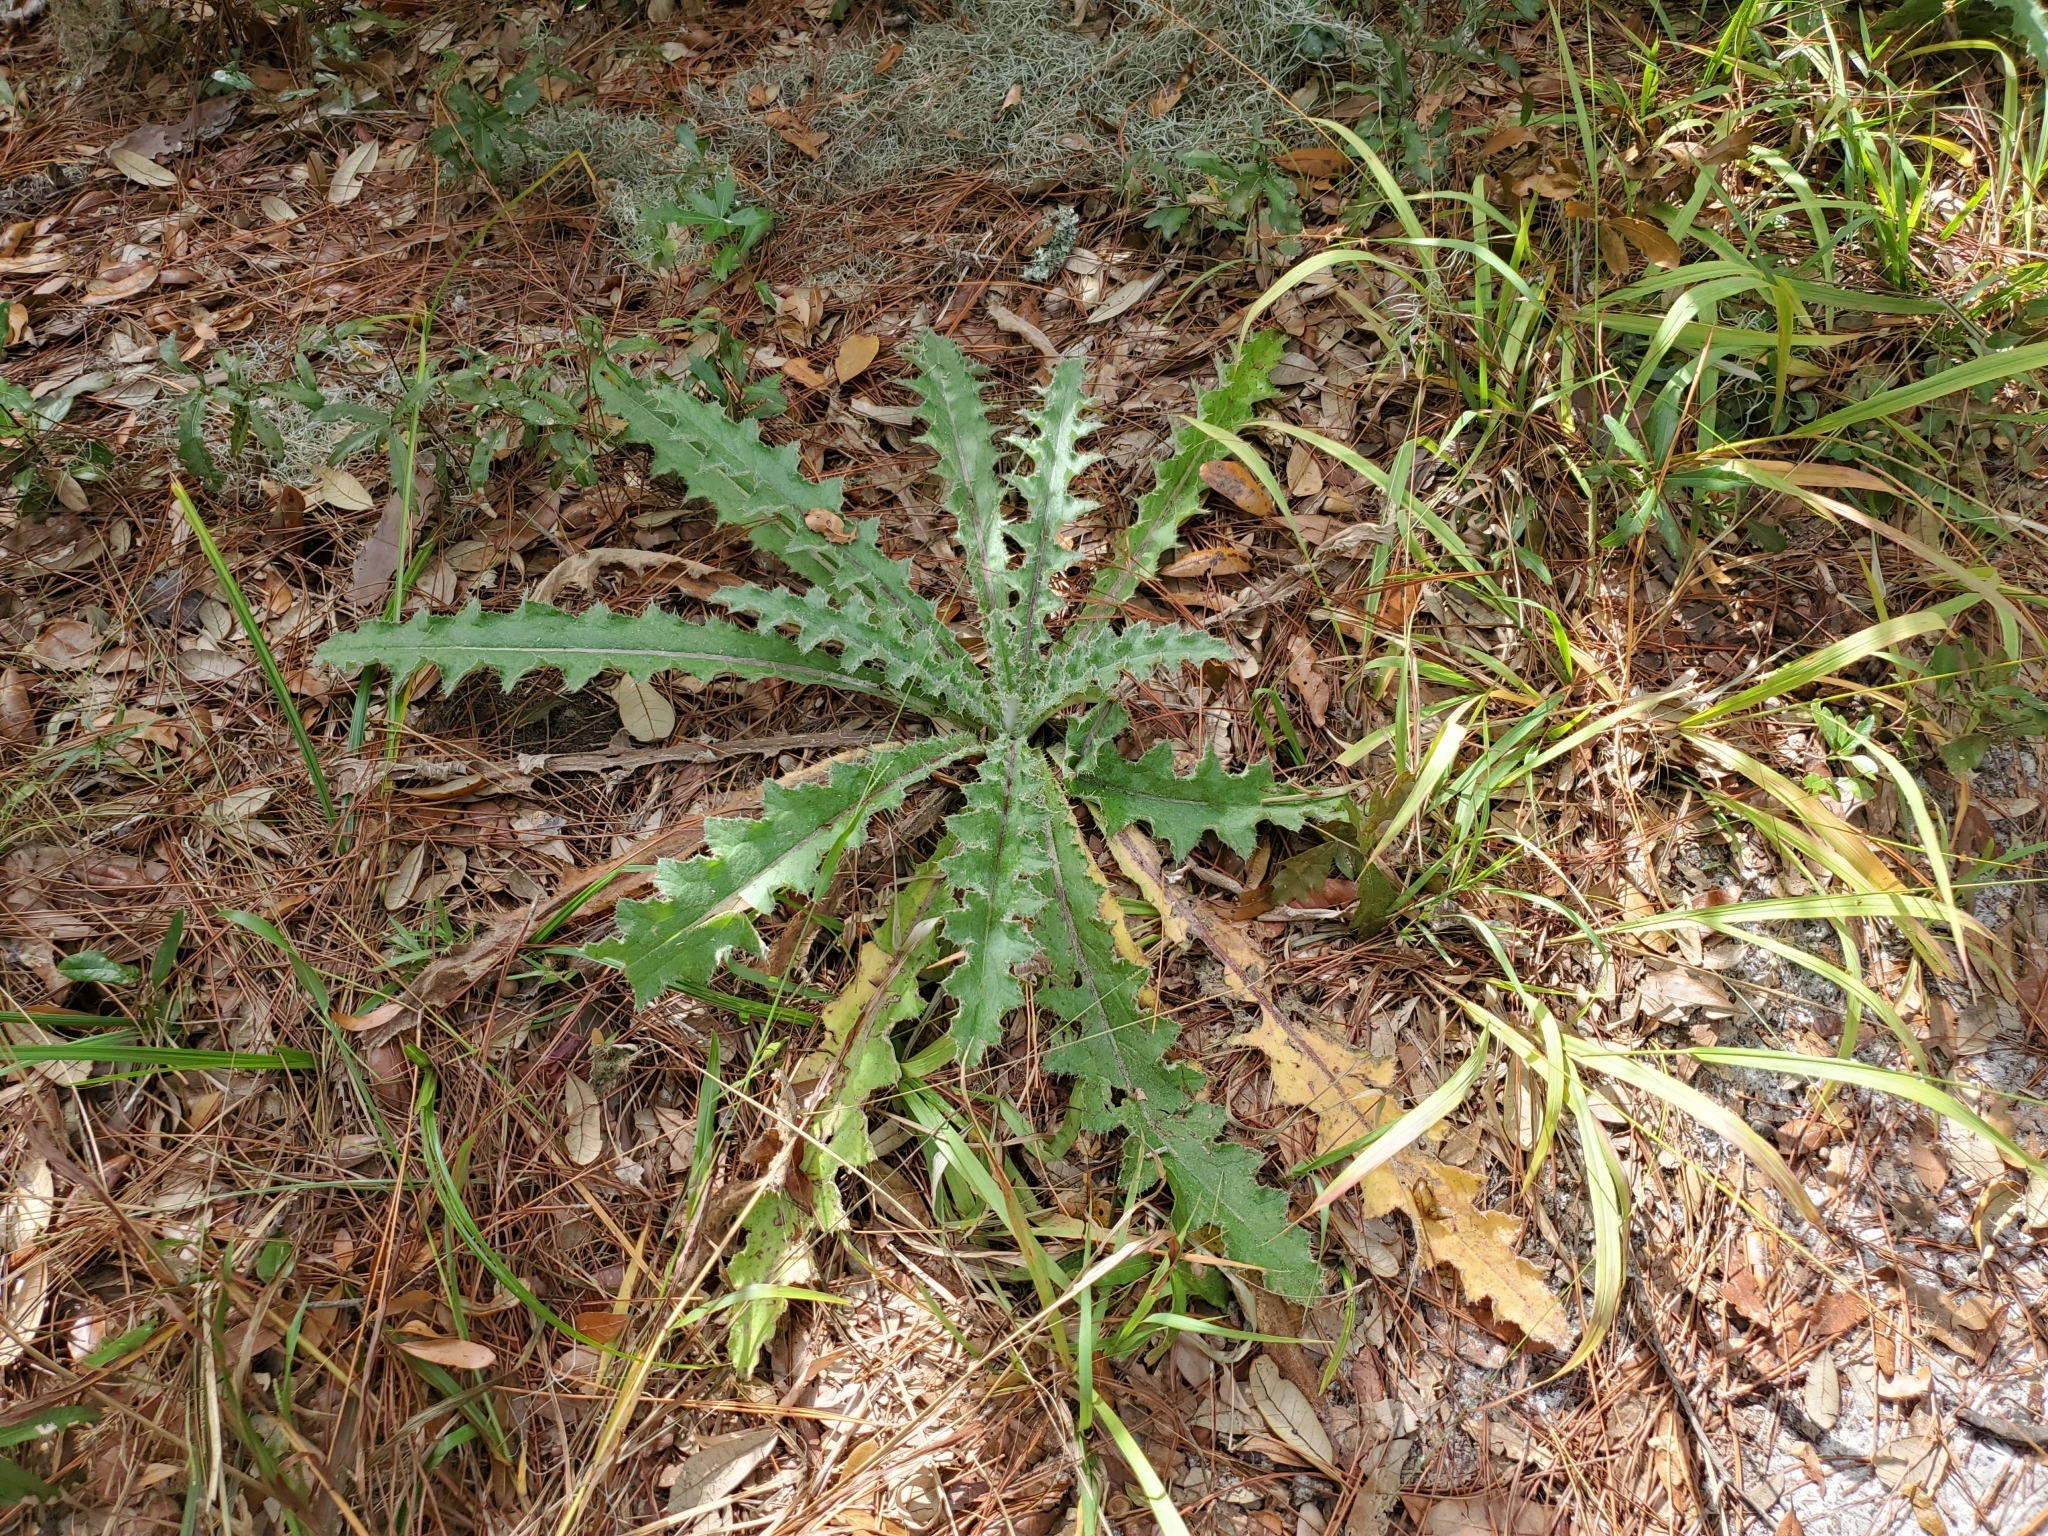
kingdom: Plantae
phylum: Tracheophyta
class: Magnoliopsida
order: Asterales
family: Asteraceae
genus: Cirsium
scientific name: Cirsium horridulum
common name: Bristly thistle
